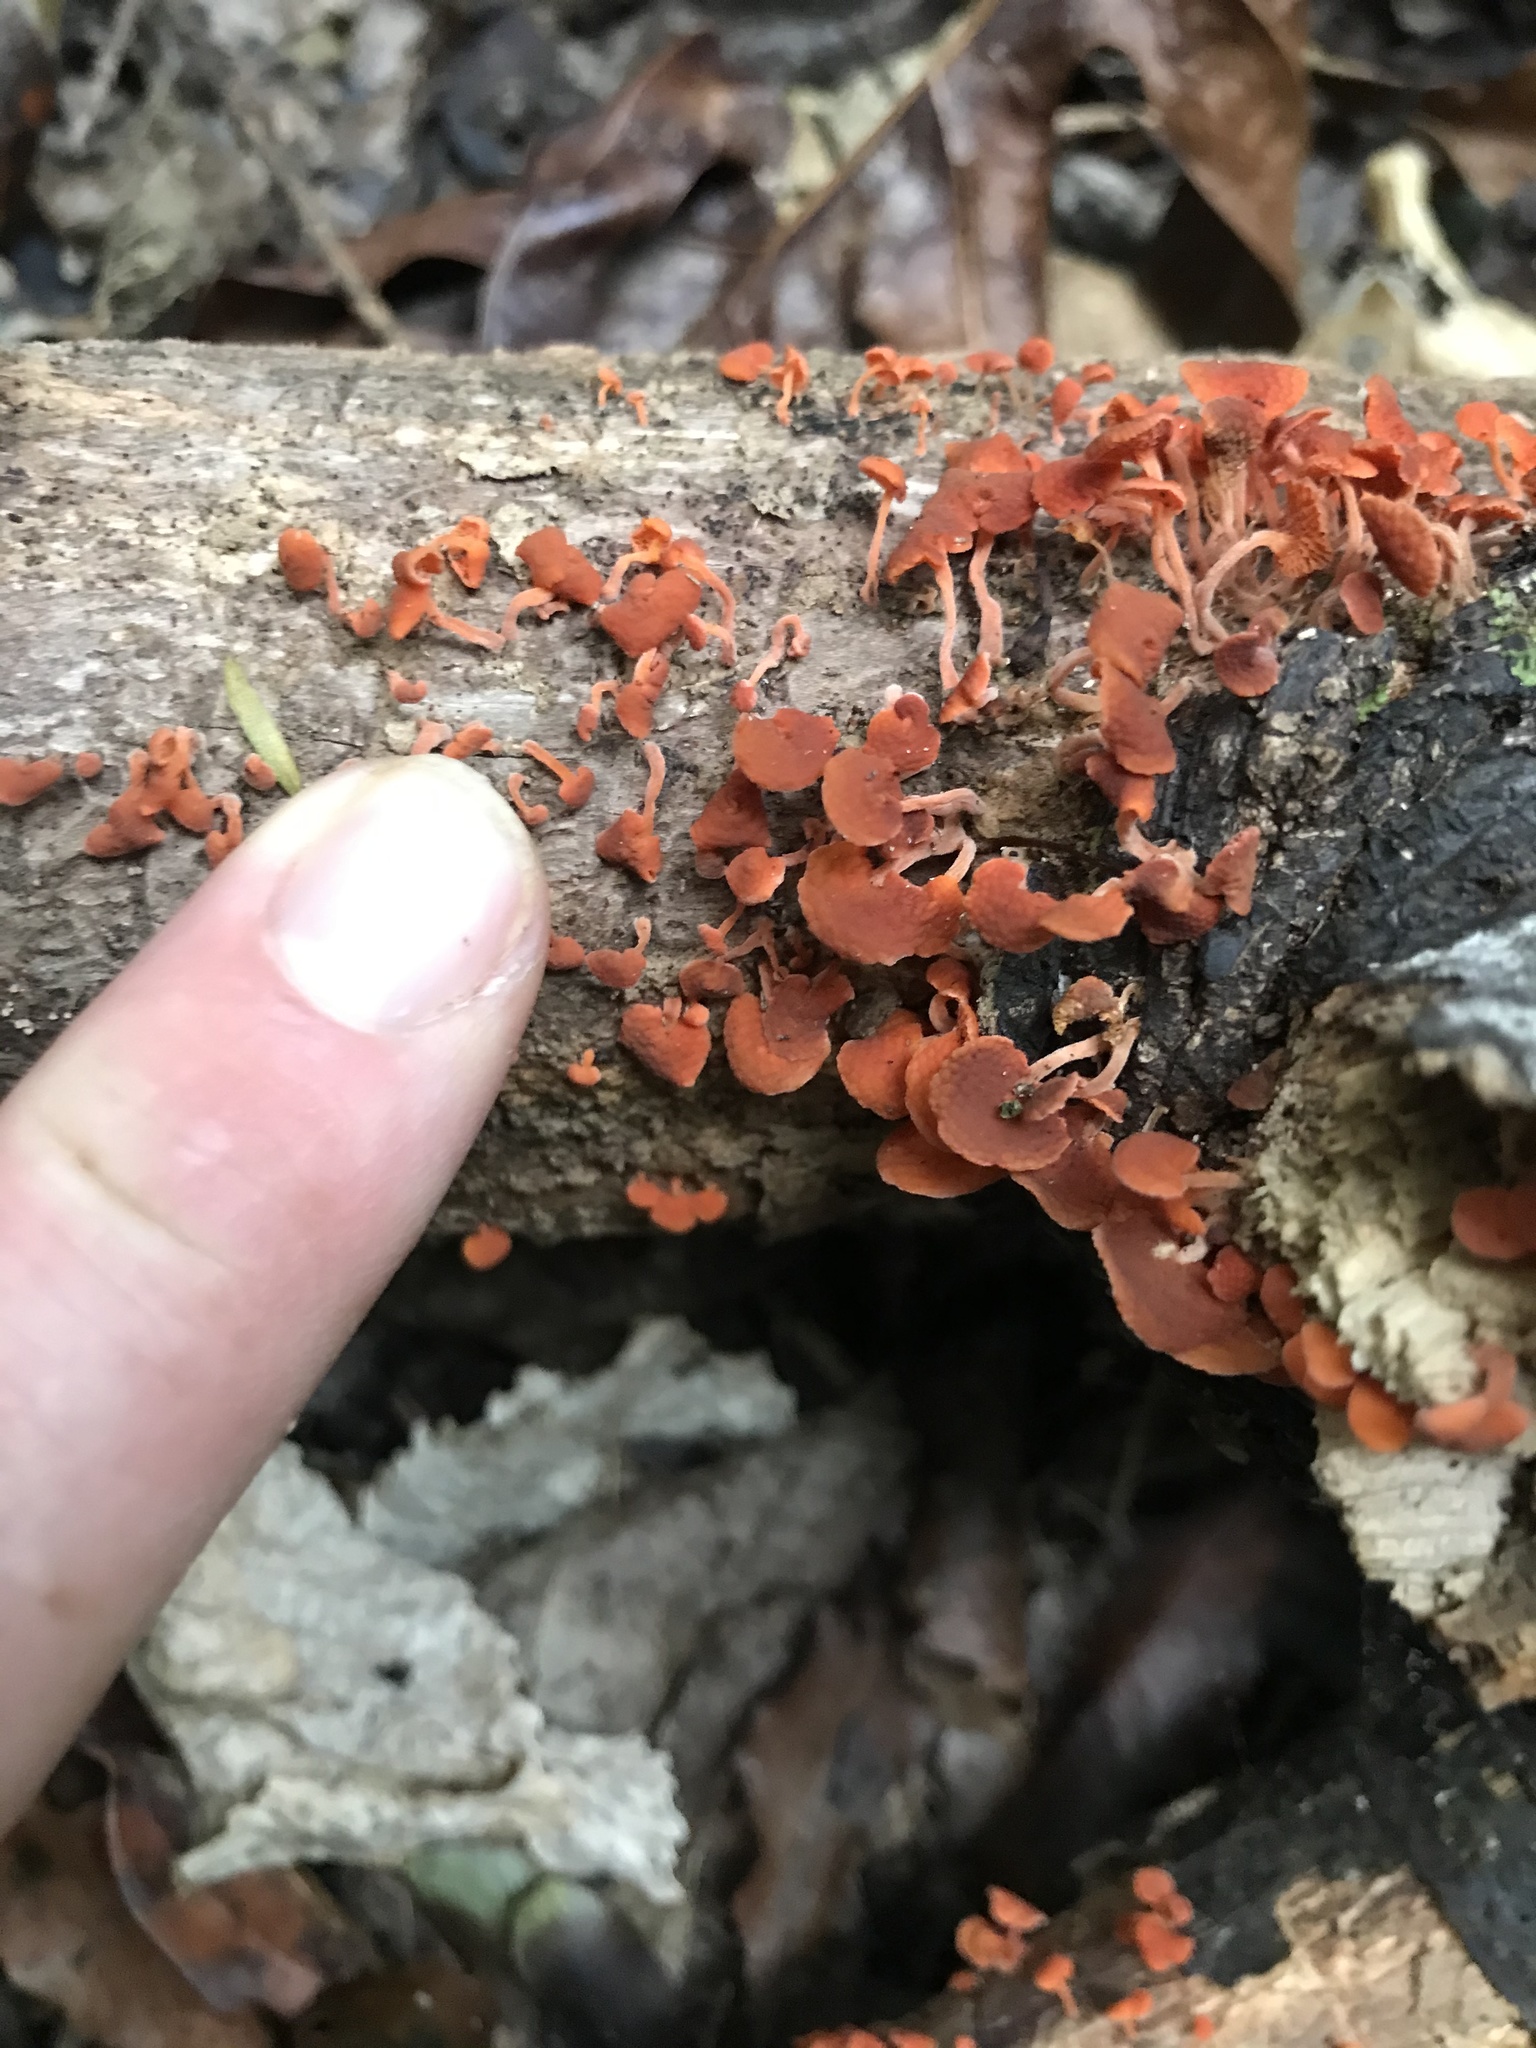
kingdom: Fungi
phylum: Basidiomycota
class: Agaricomycetes
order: Agaricales
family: Mycenaceae
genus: Favolaschia
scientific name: Favolaschia claudopus
